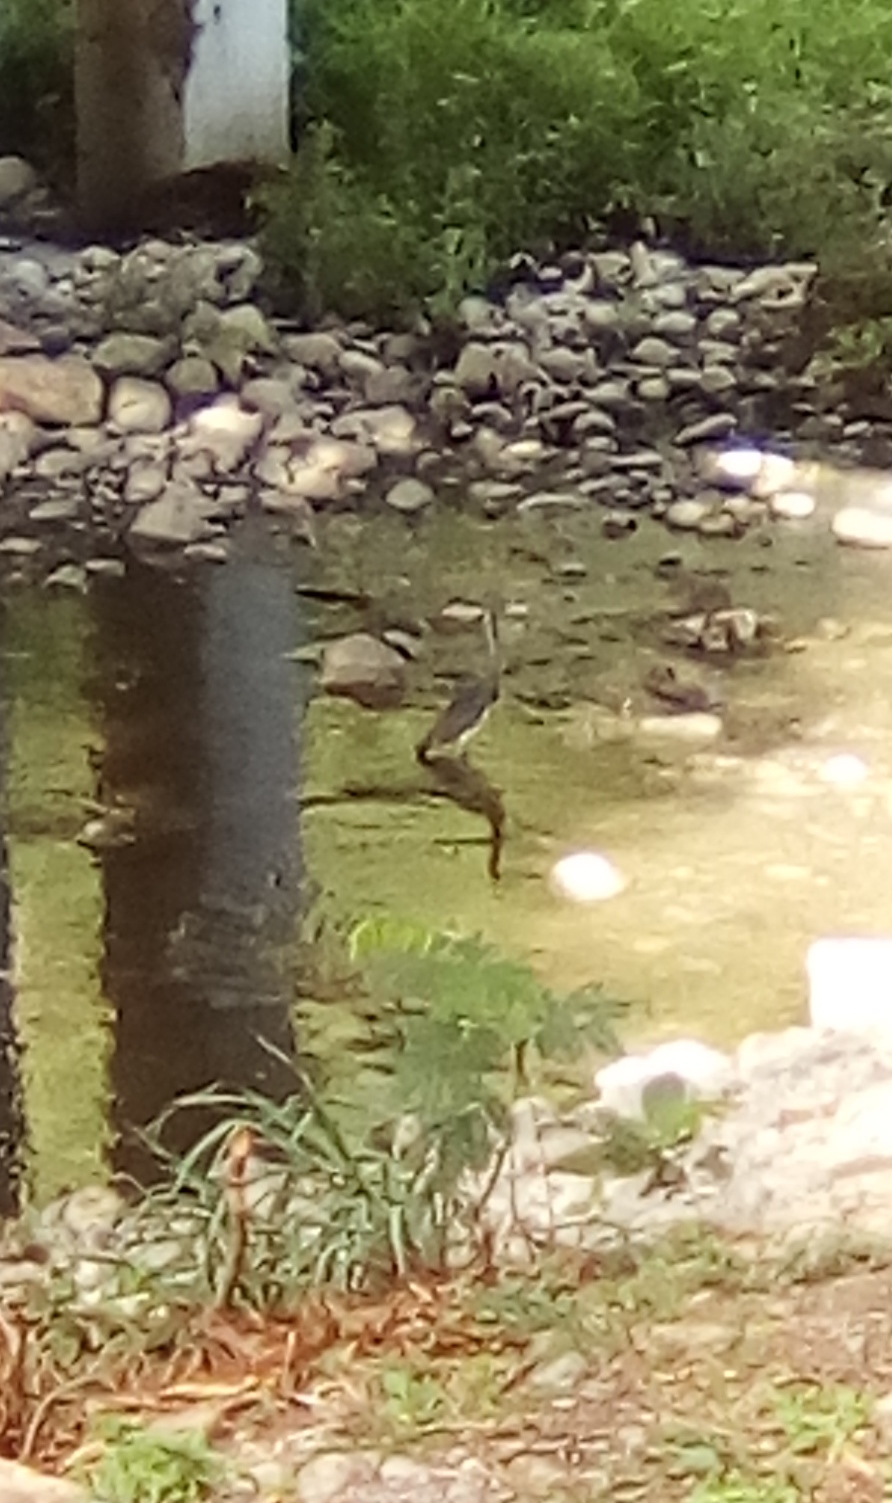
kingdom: Animalia
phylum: Chordata
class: Aves
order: Pelecaniformes
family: Ardeidae
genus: Egretta
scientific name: Egretta tricolor
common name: Tricolored heron
